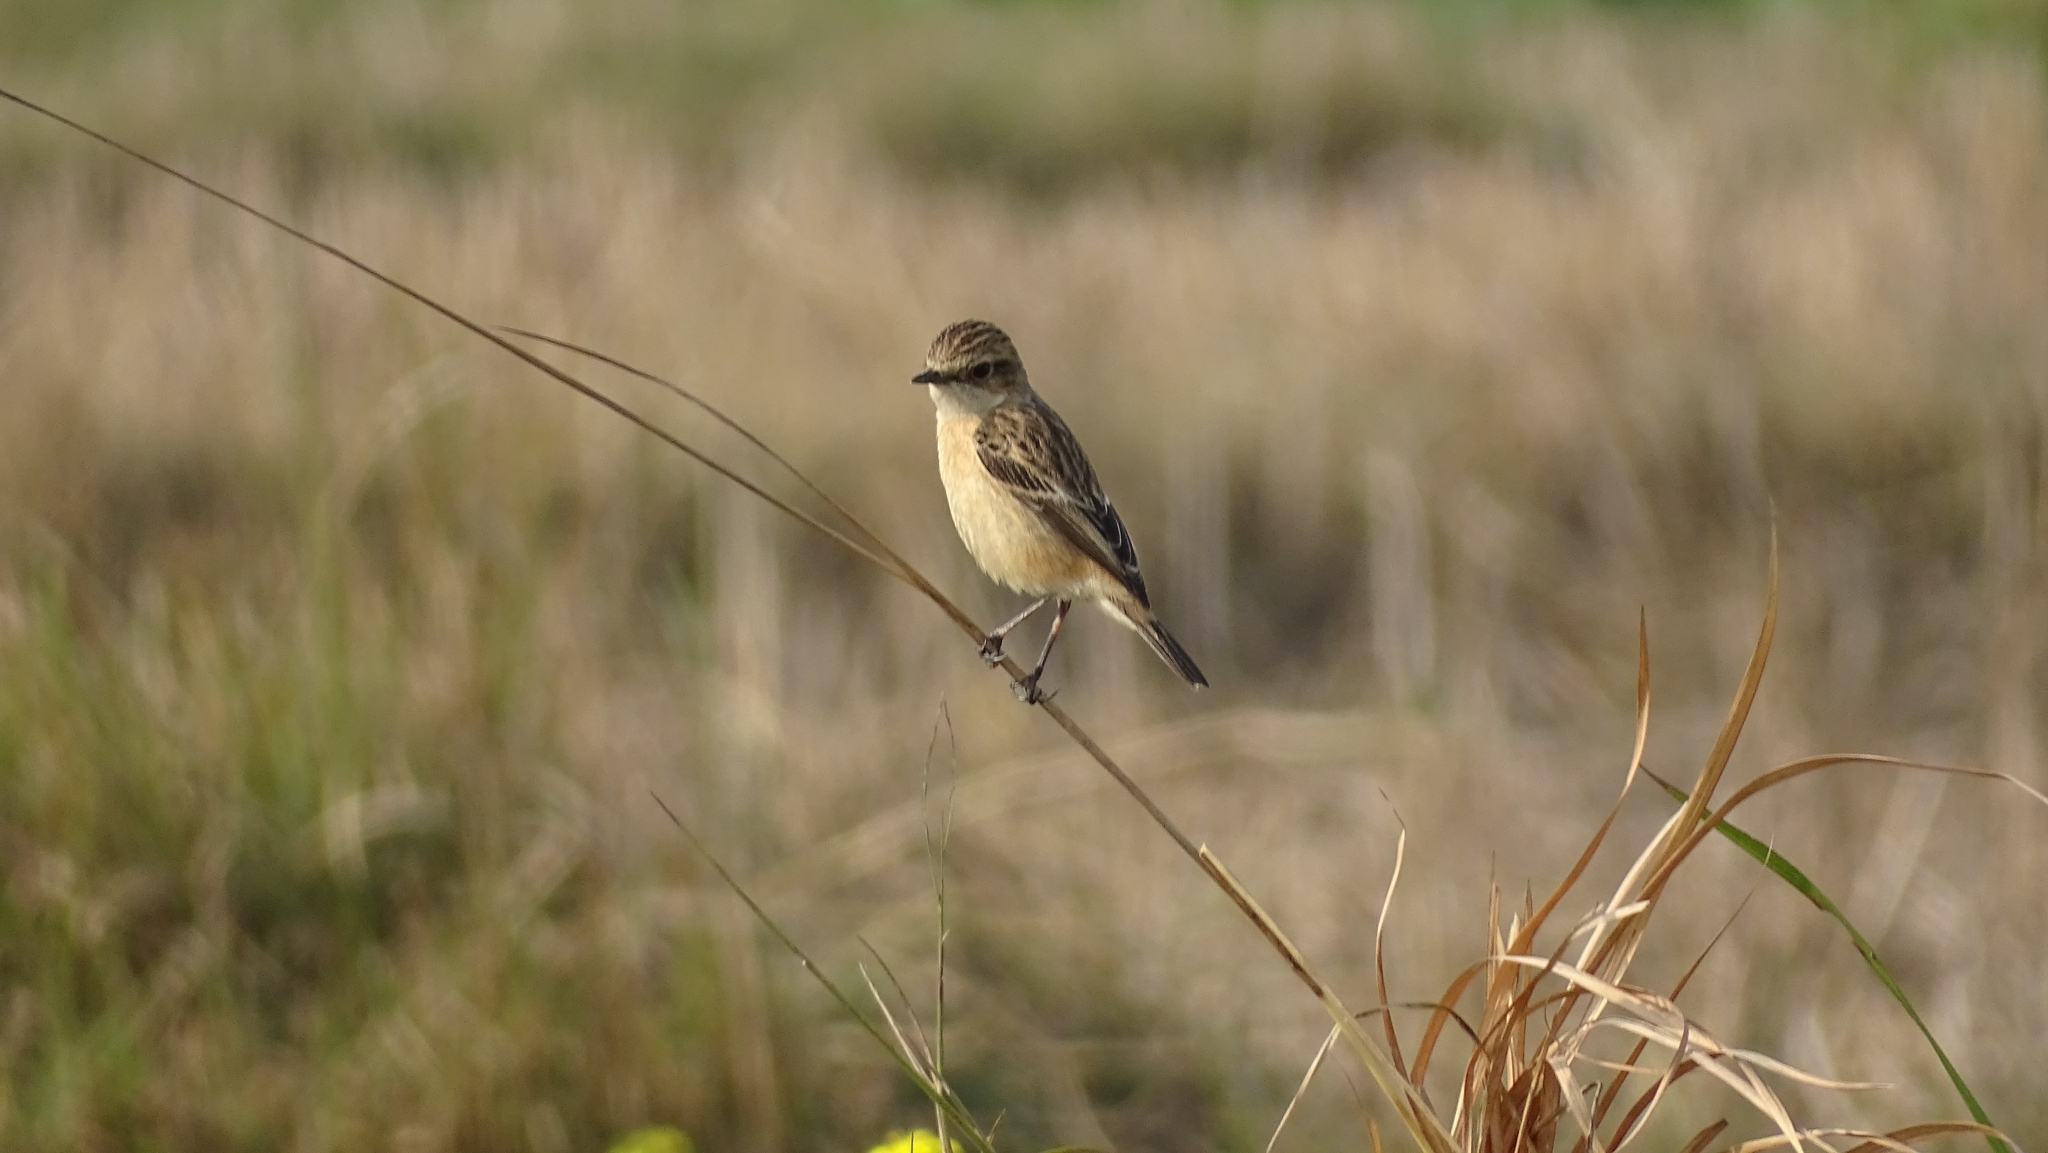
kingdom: Animalia
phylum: Chordata
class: Aves
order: Passeriformes
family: Muscicapidae
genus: Saxicola
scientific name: Saxicola maurus
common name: Siberian stonechat
